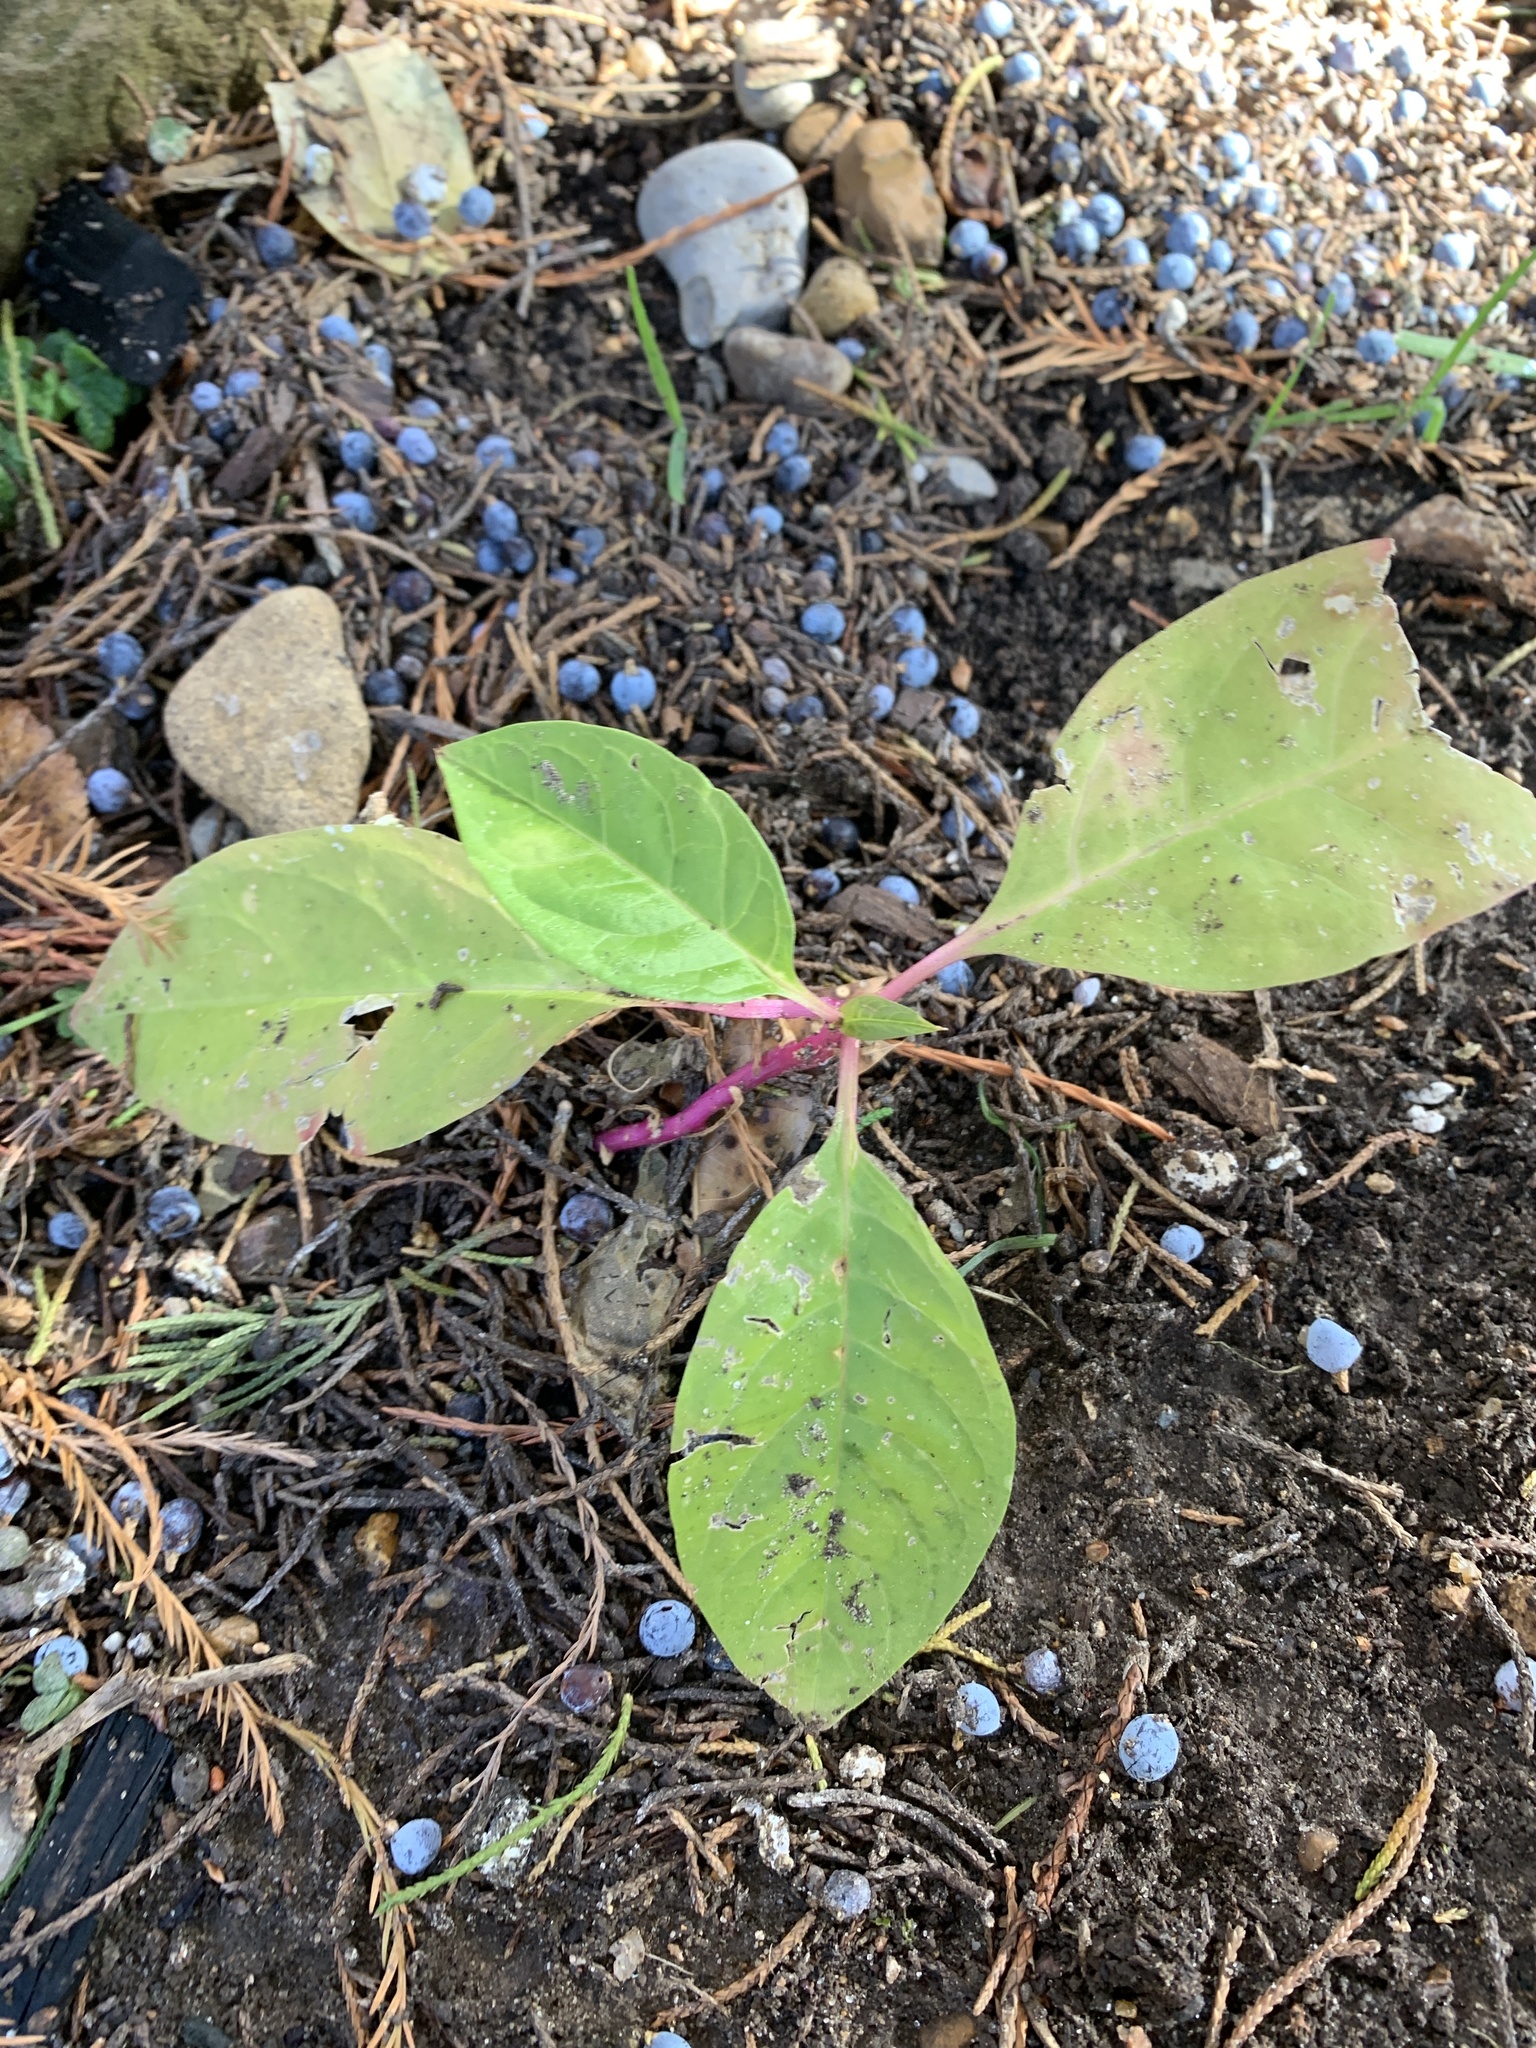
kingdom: Plantae
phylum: Tracheophyta
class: Magnoliopsida
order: Caryophyllales
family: Phytolaccaceae
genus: Phytolacca
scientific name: Phytolacca americana
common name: American pokeweed
